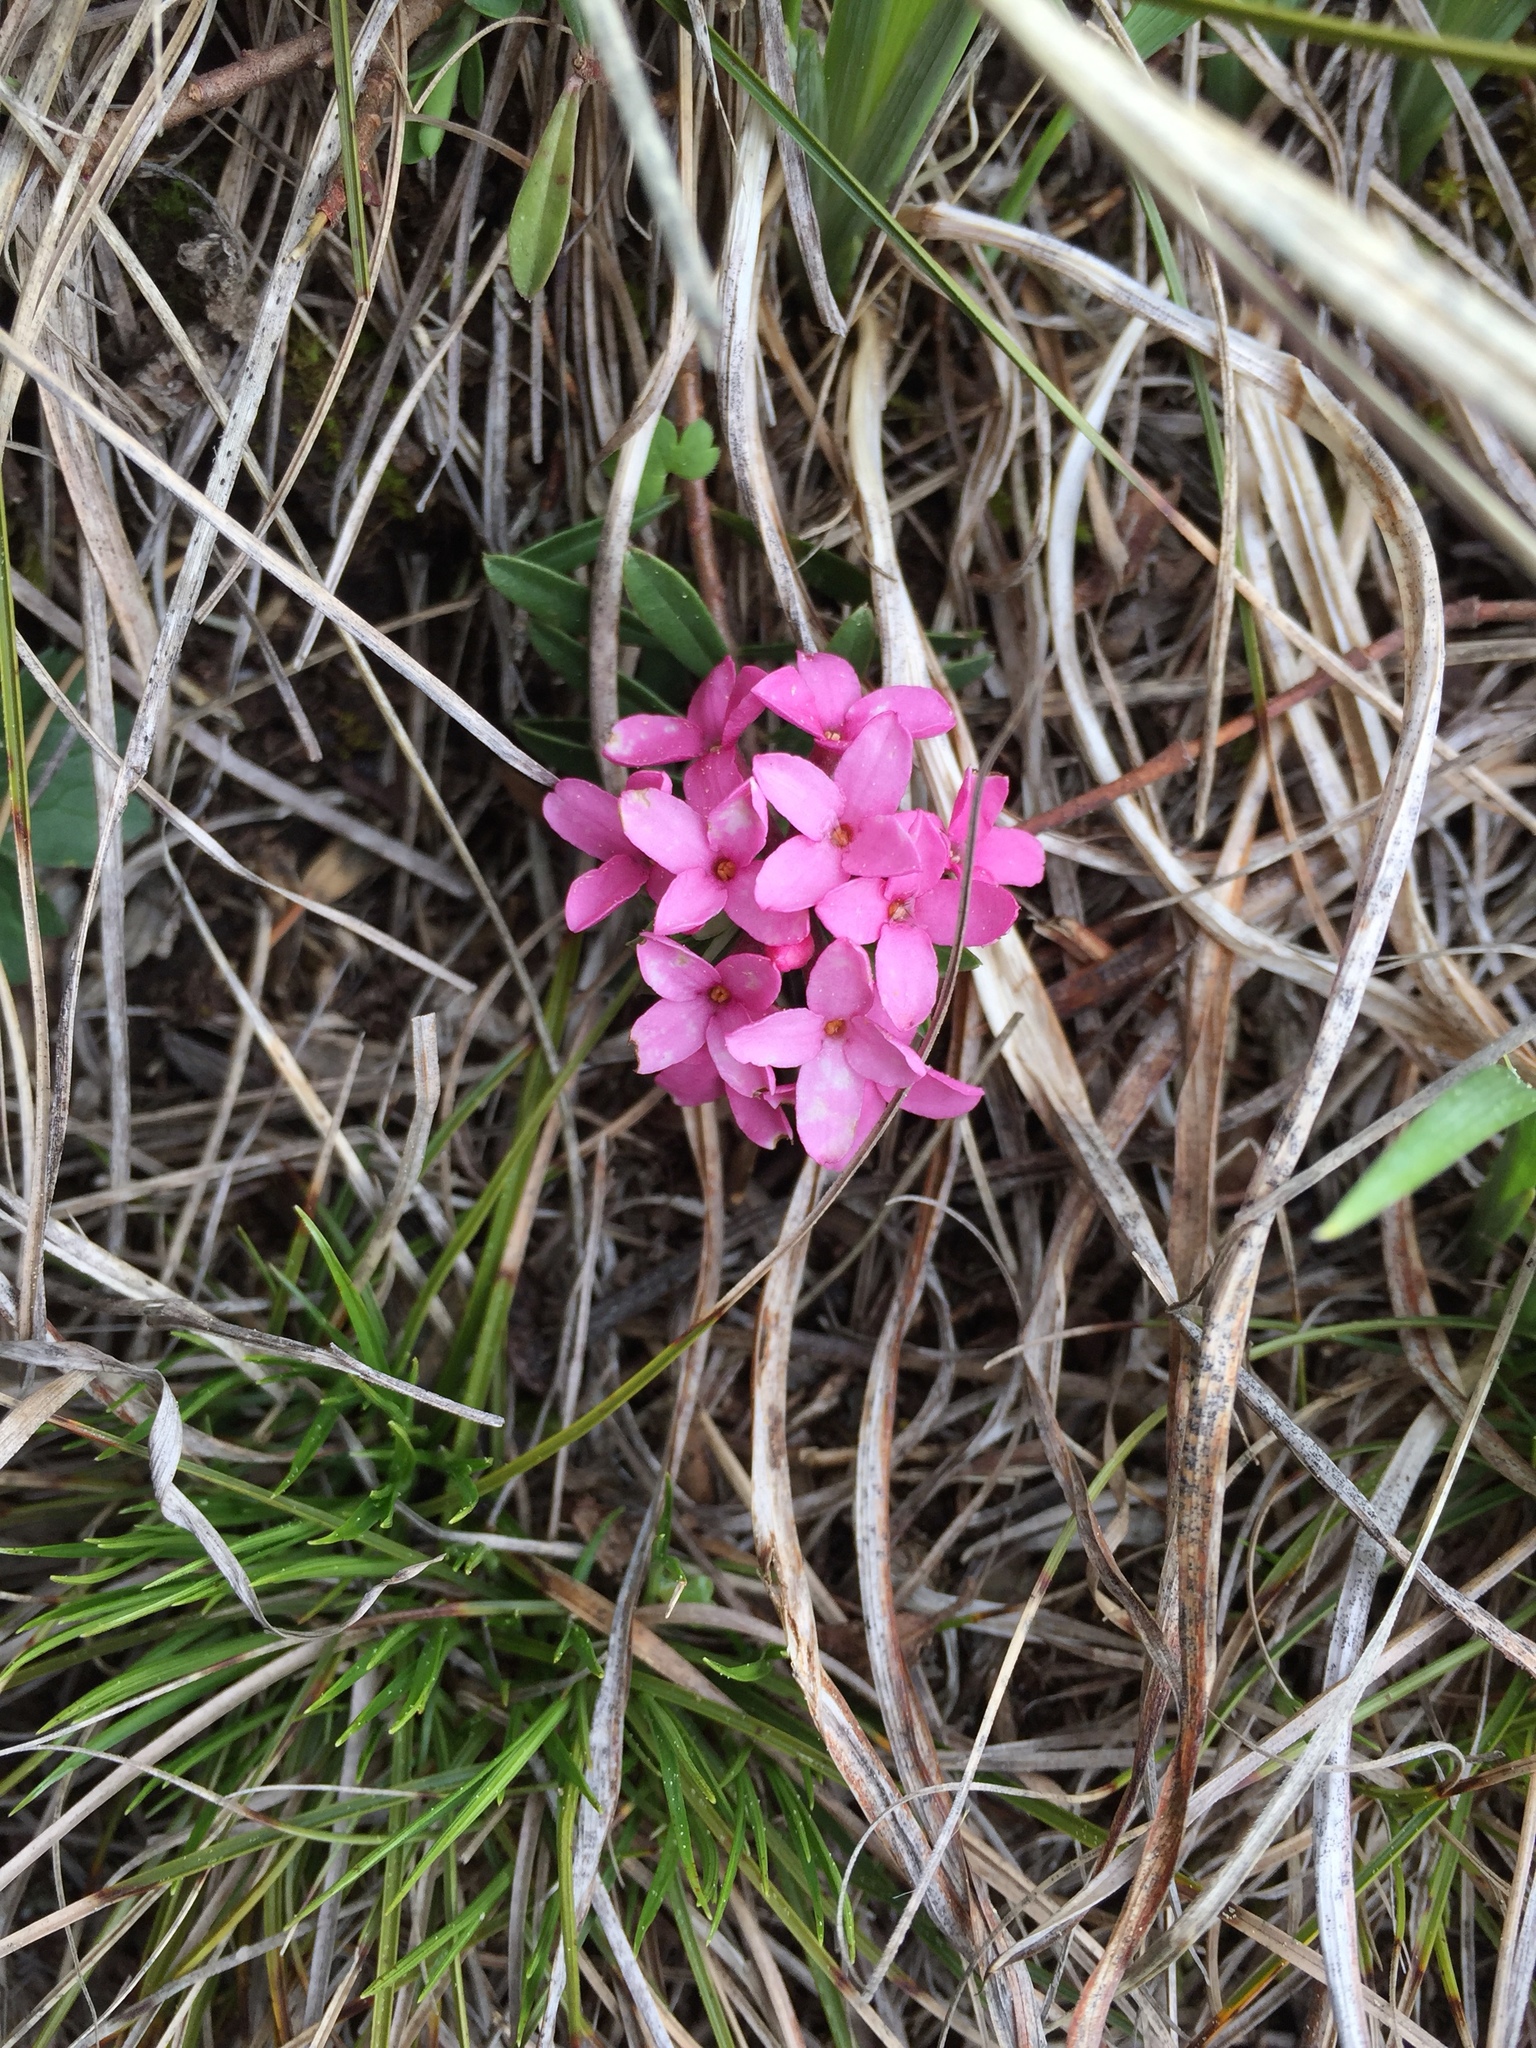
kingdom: Plantae
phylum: Tracheophyta
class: Magnoliopsida
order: Malvales
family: Thymelaeaceae
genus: Daphne
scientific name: Daphne cneorum
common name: Garland-flower
